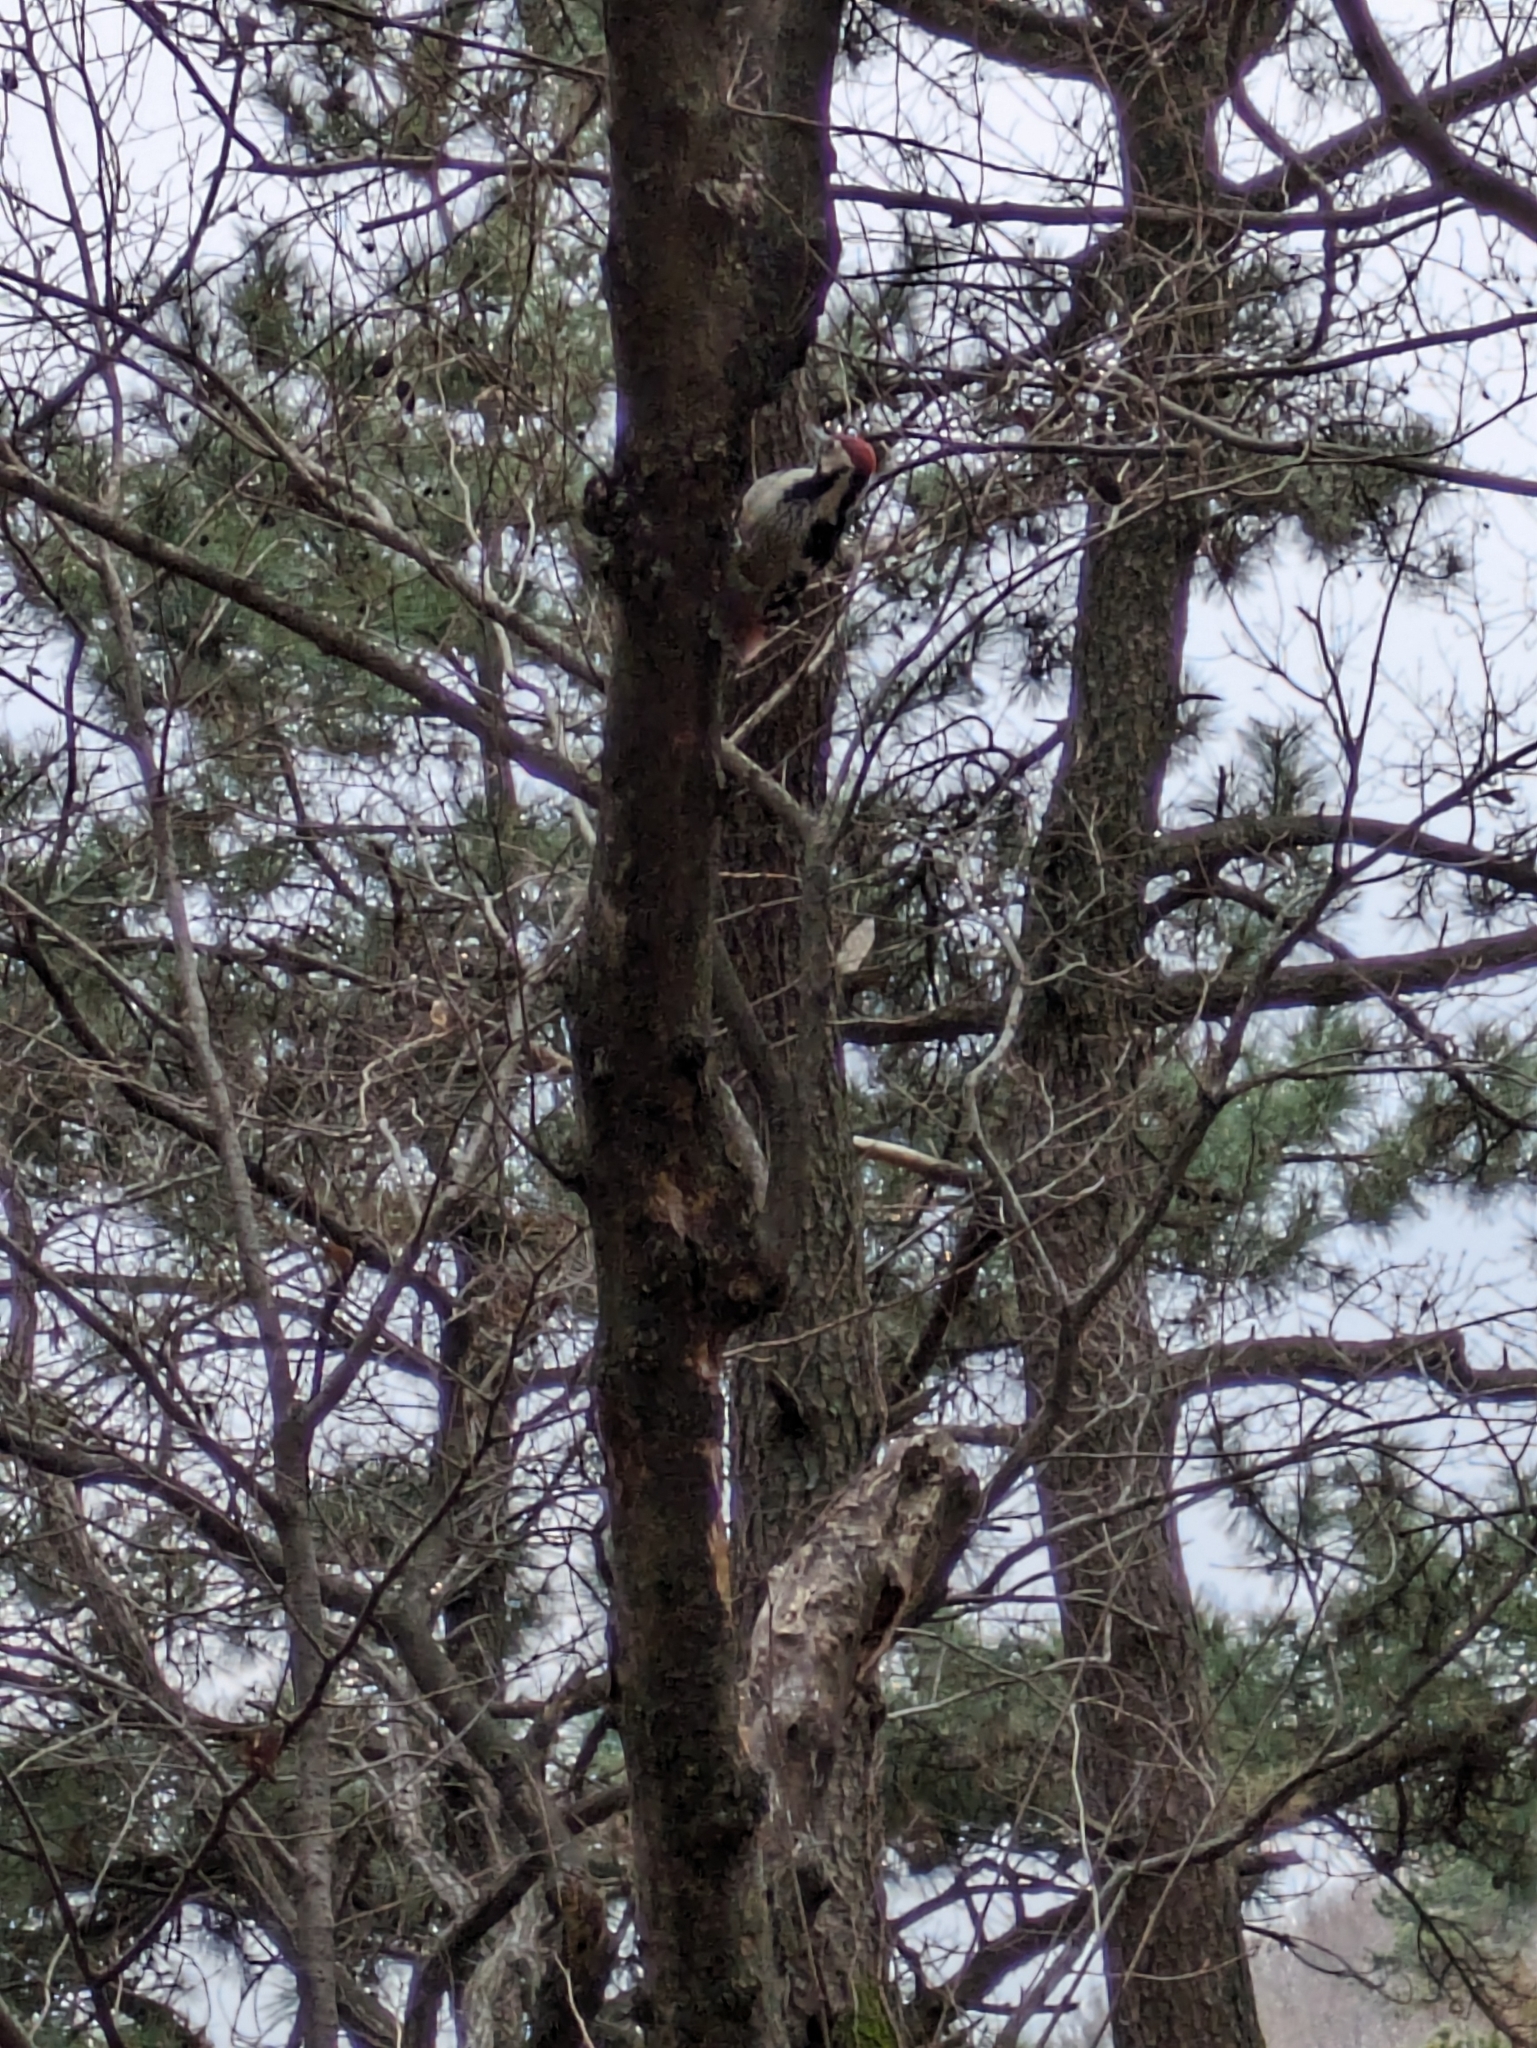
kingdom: Animalia
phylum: Chordata
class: Aves
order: Piciformes
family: Picidae
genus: Dendrocopos
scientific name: Dendrocopos leucotos
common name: White-backed woodpecker
